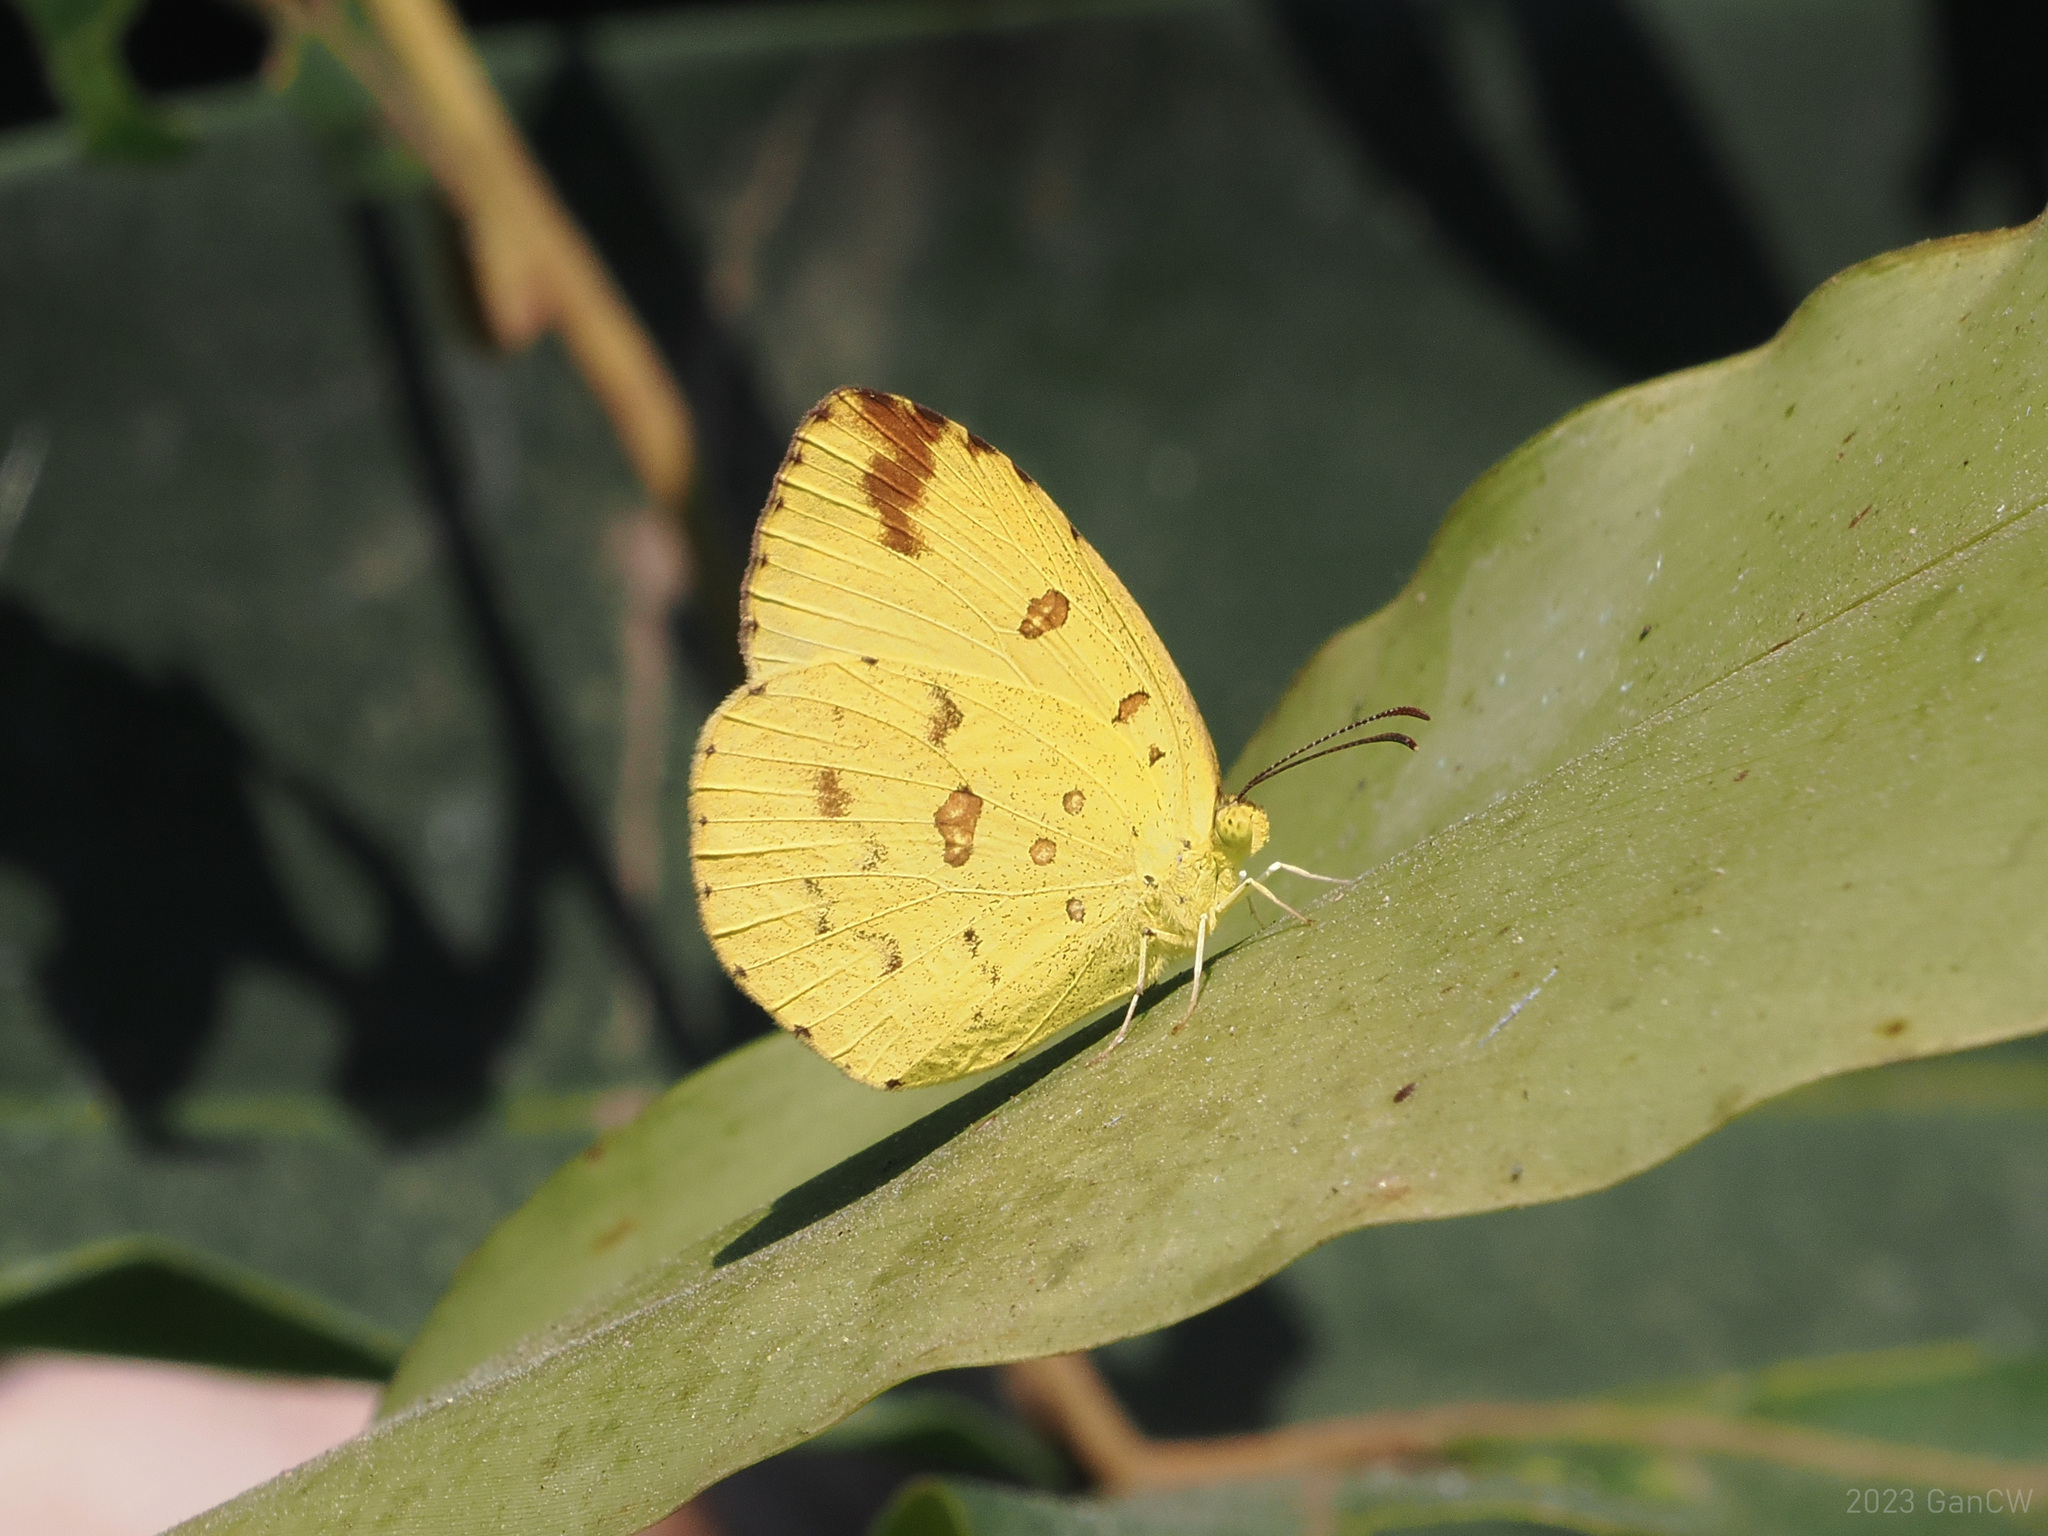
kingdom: Animalia
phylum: Arthropoda
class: Insecta
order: Lepidoptera
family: Pieridae
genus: Eurema
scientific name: Eurema hecabe
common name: Pale grass yellow
